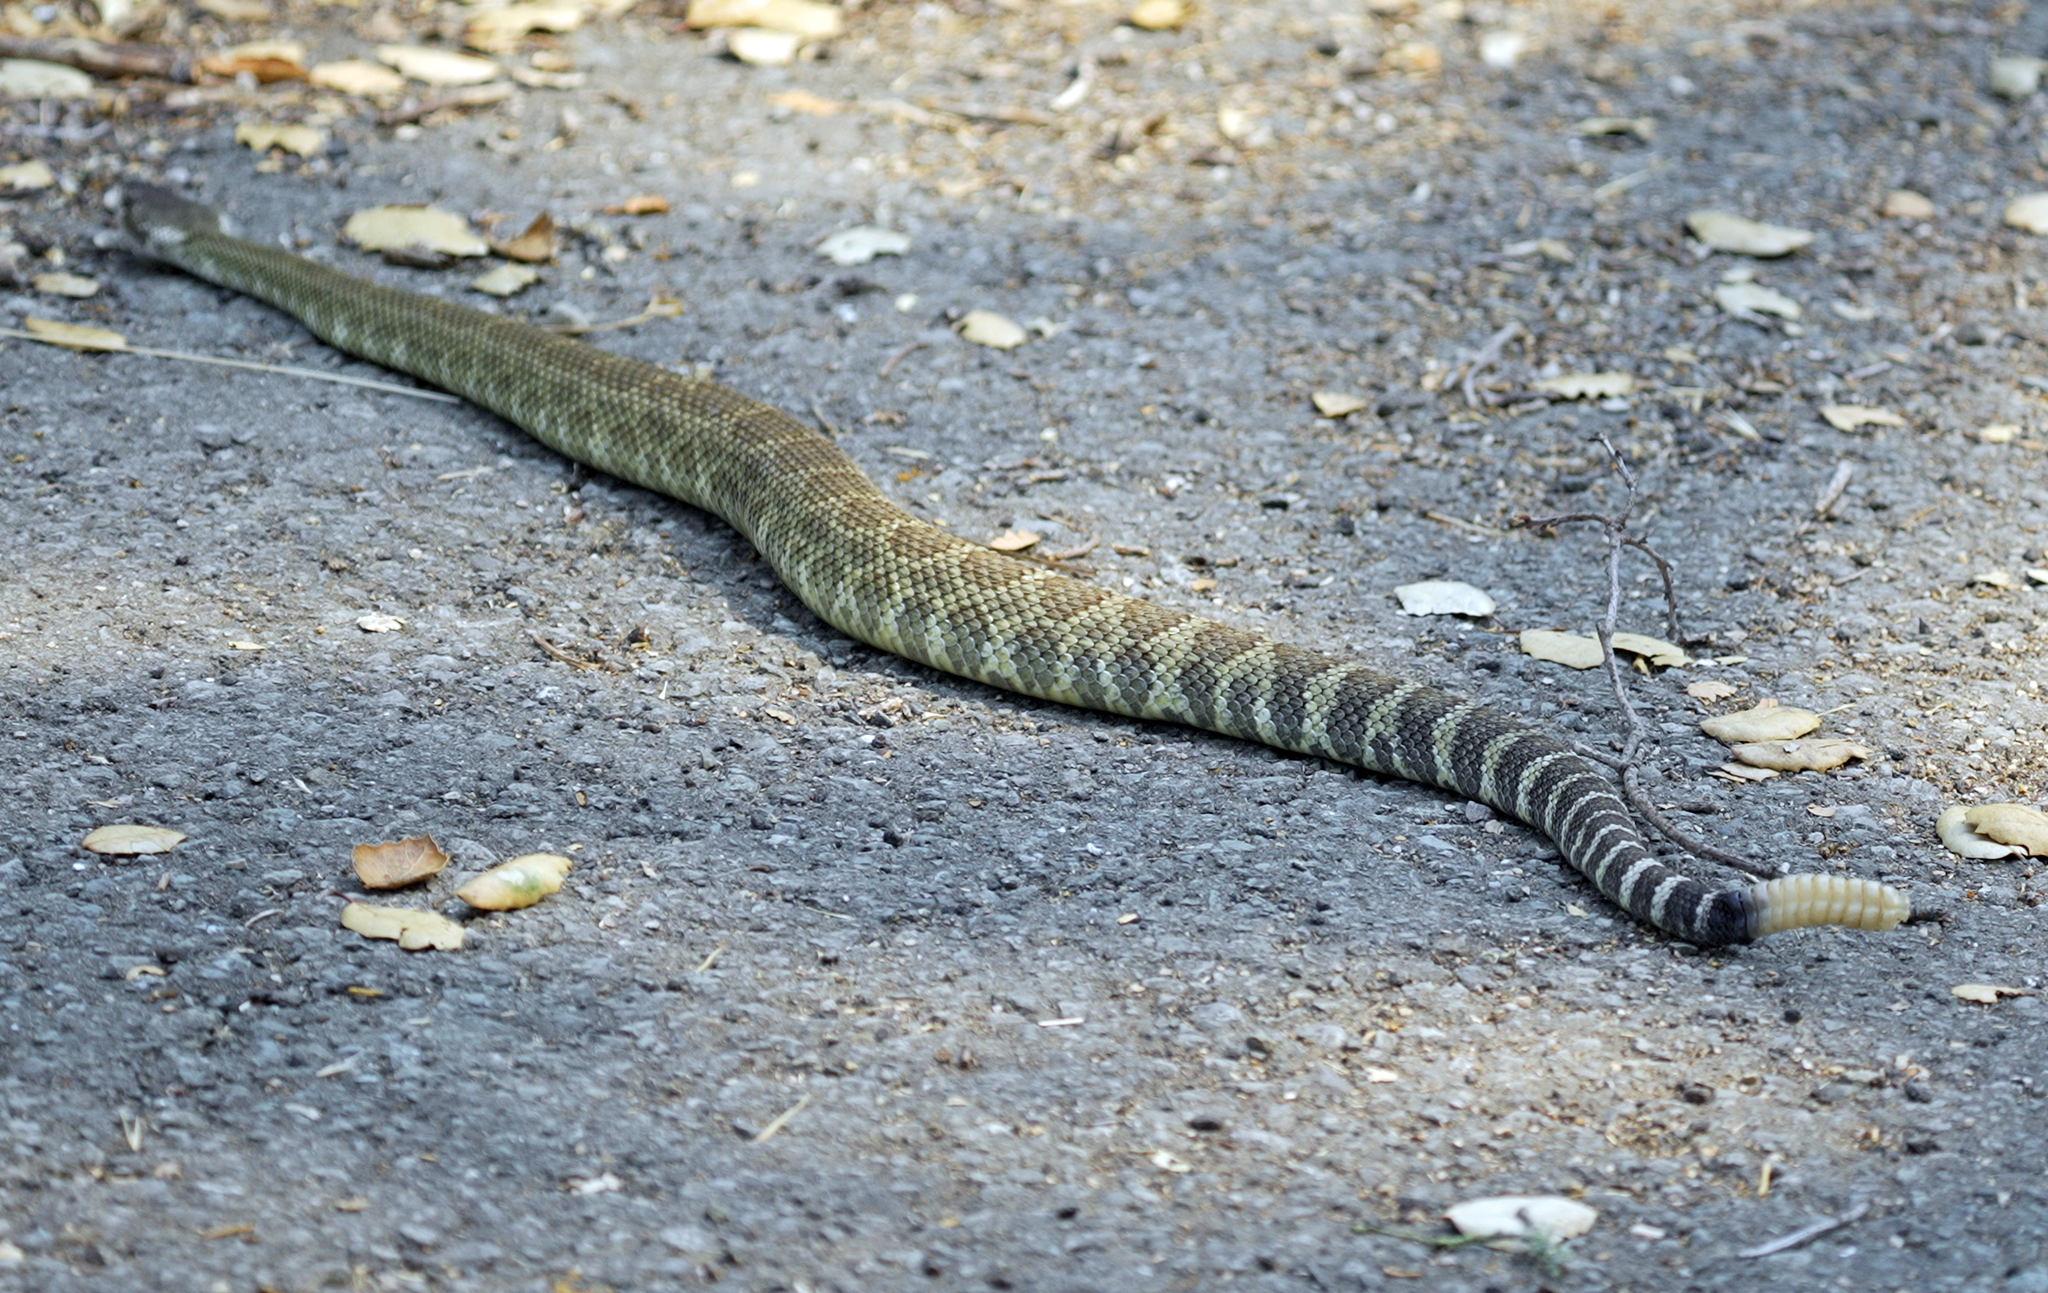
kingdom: Animalia
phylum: Chordata
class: Squamata
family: Viperidae
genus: Crotalus
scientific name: Crotalus oreganus
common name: Abyssus
